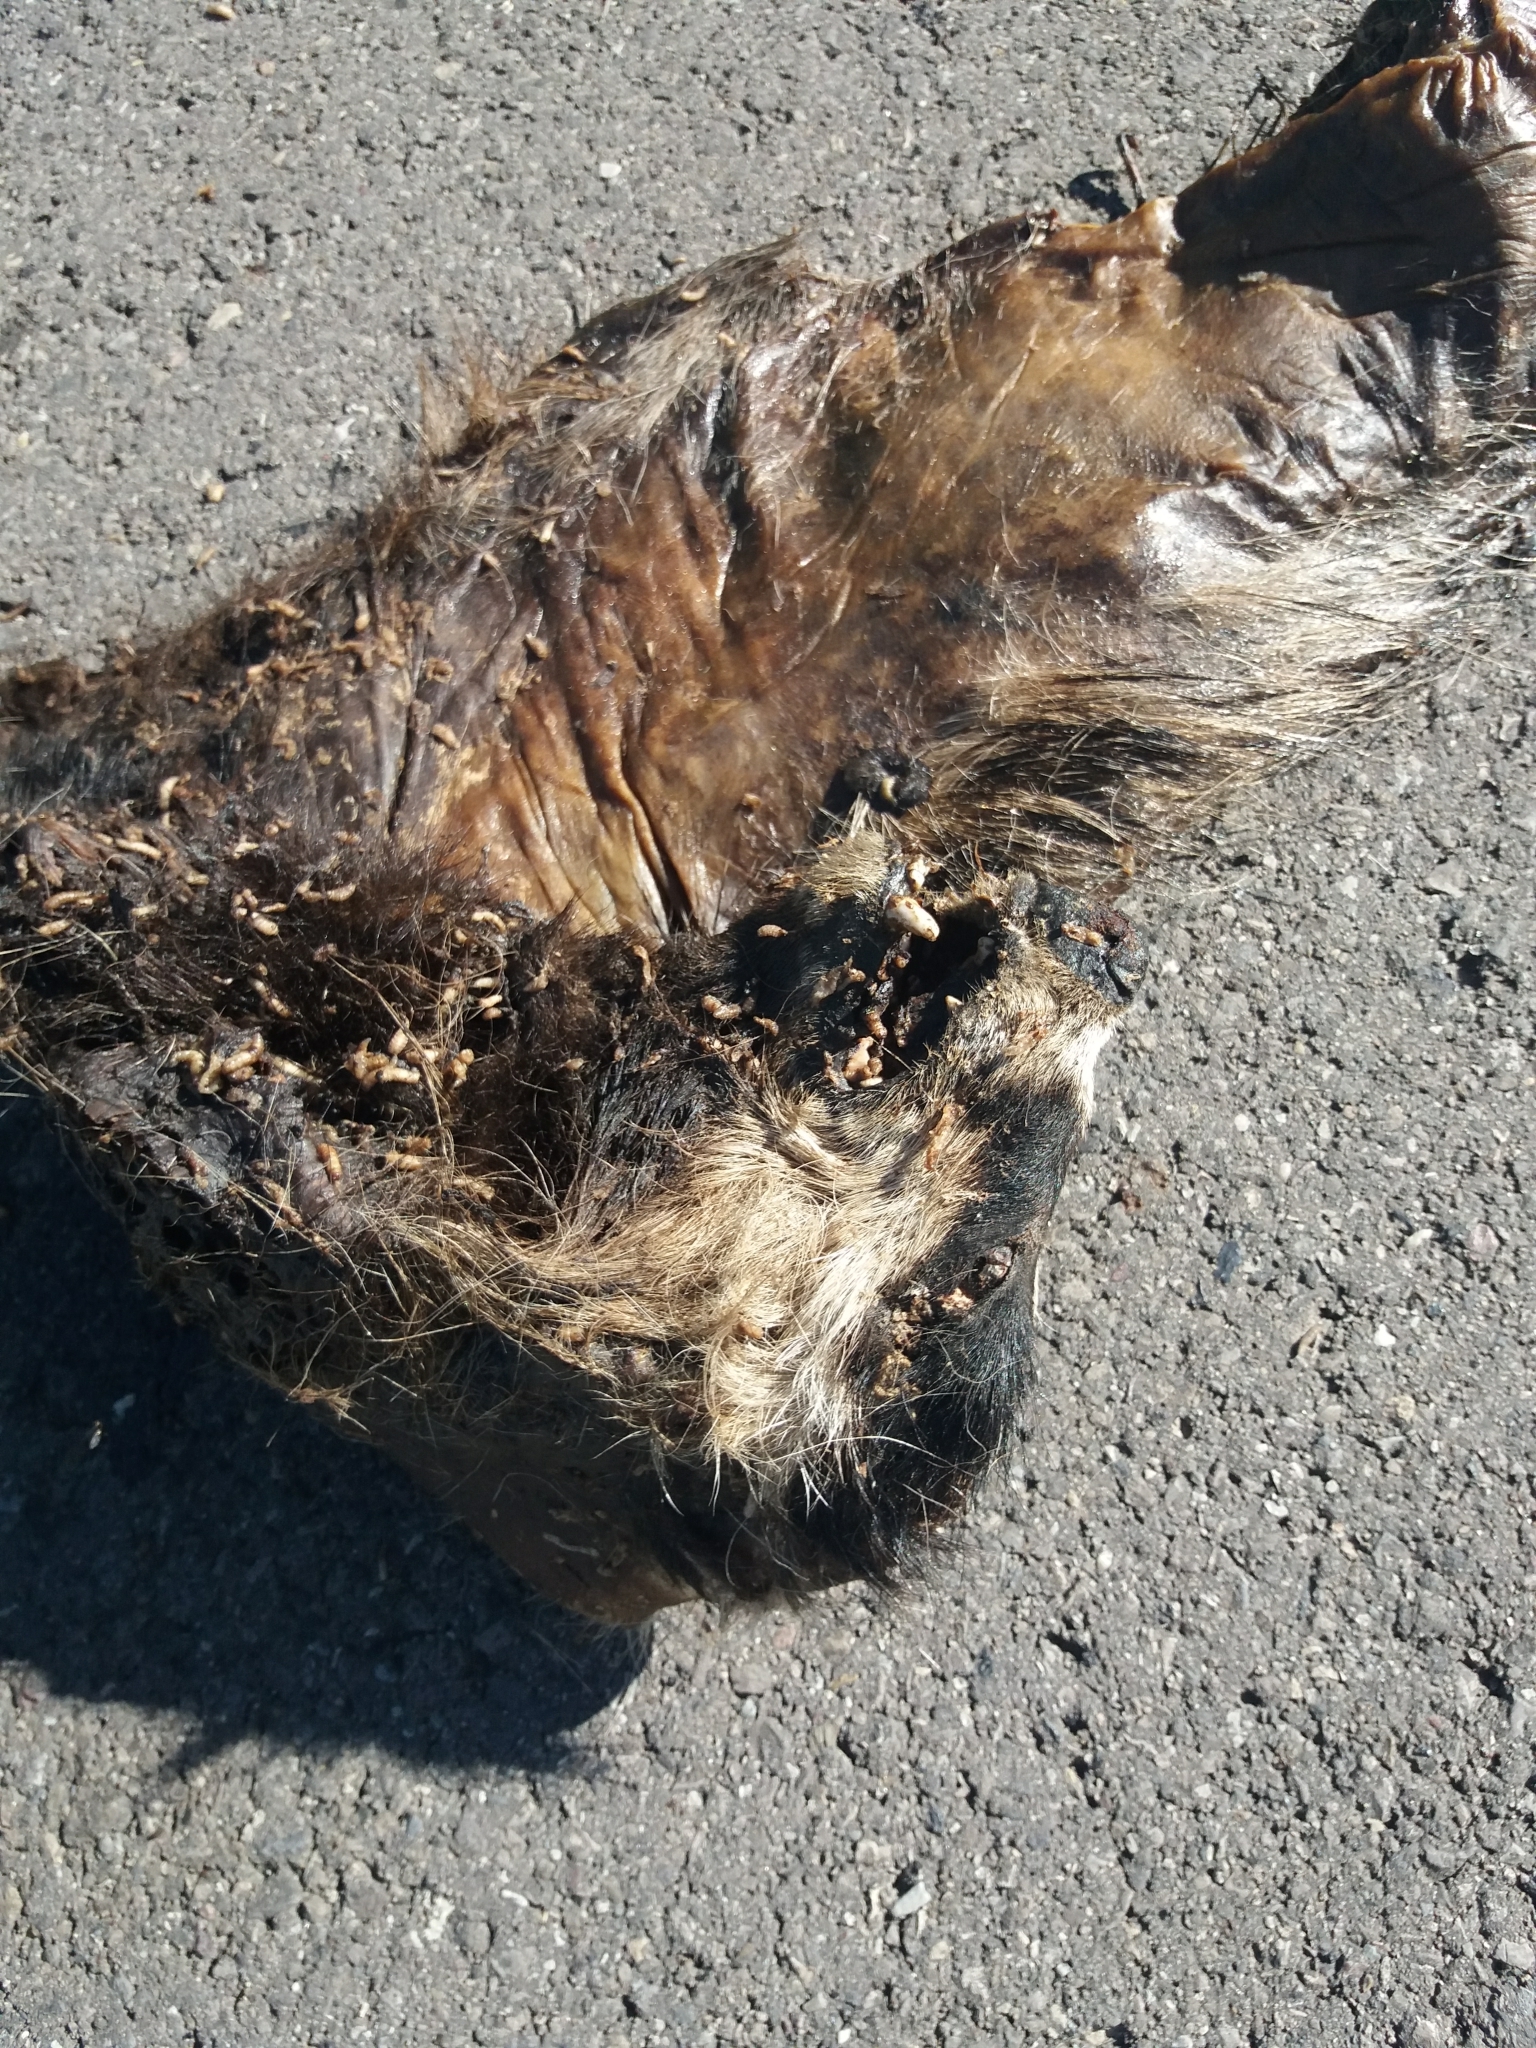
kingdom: Animalia
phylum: Chordata
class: Mammalia
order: Carnivora
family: Mustelidae
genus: Meles
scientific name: Meles meles
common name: Eurasian badger
